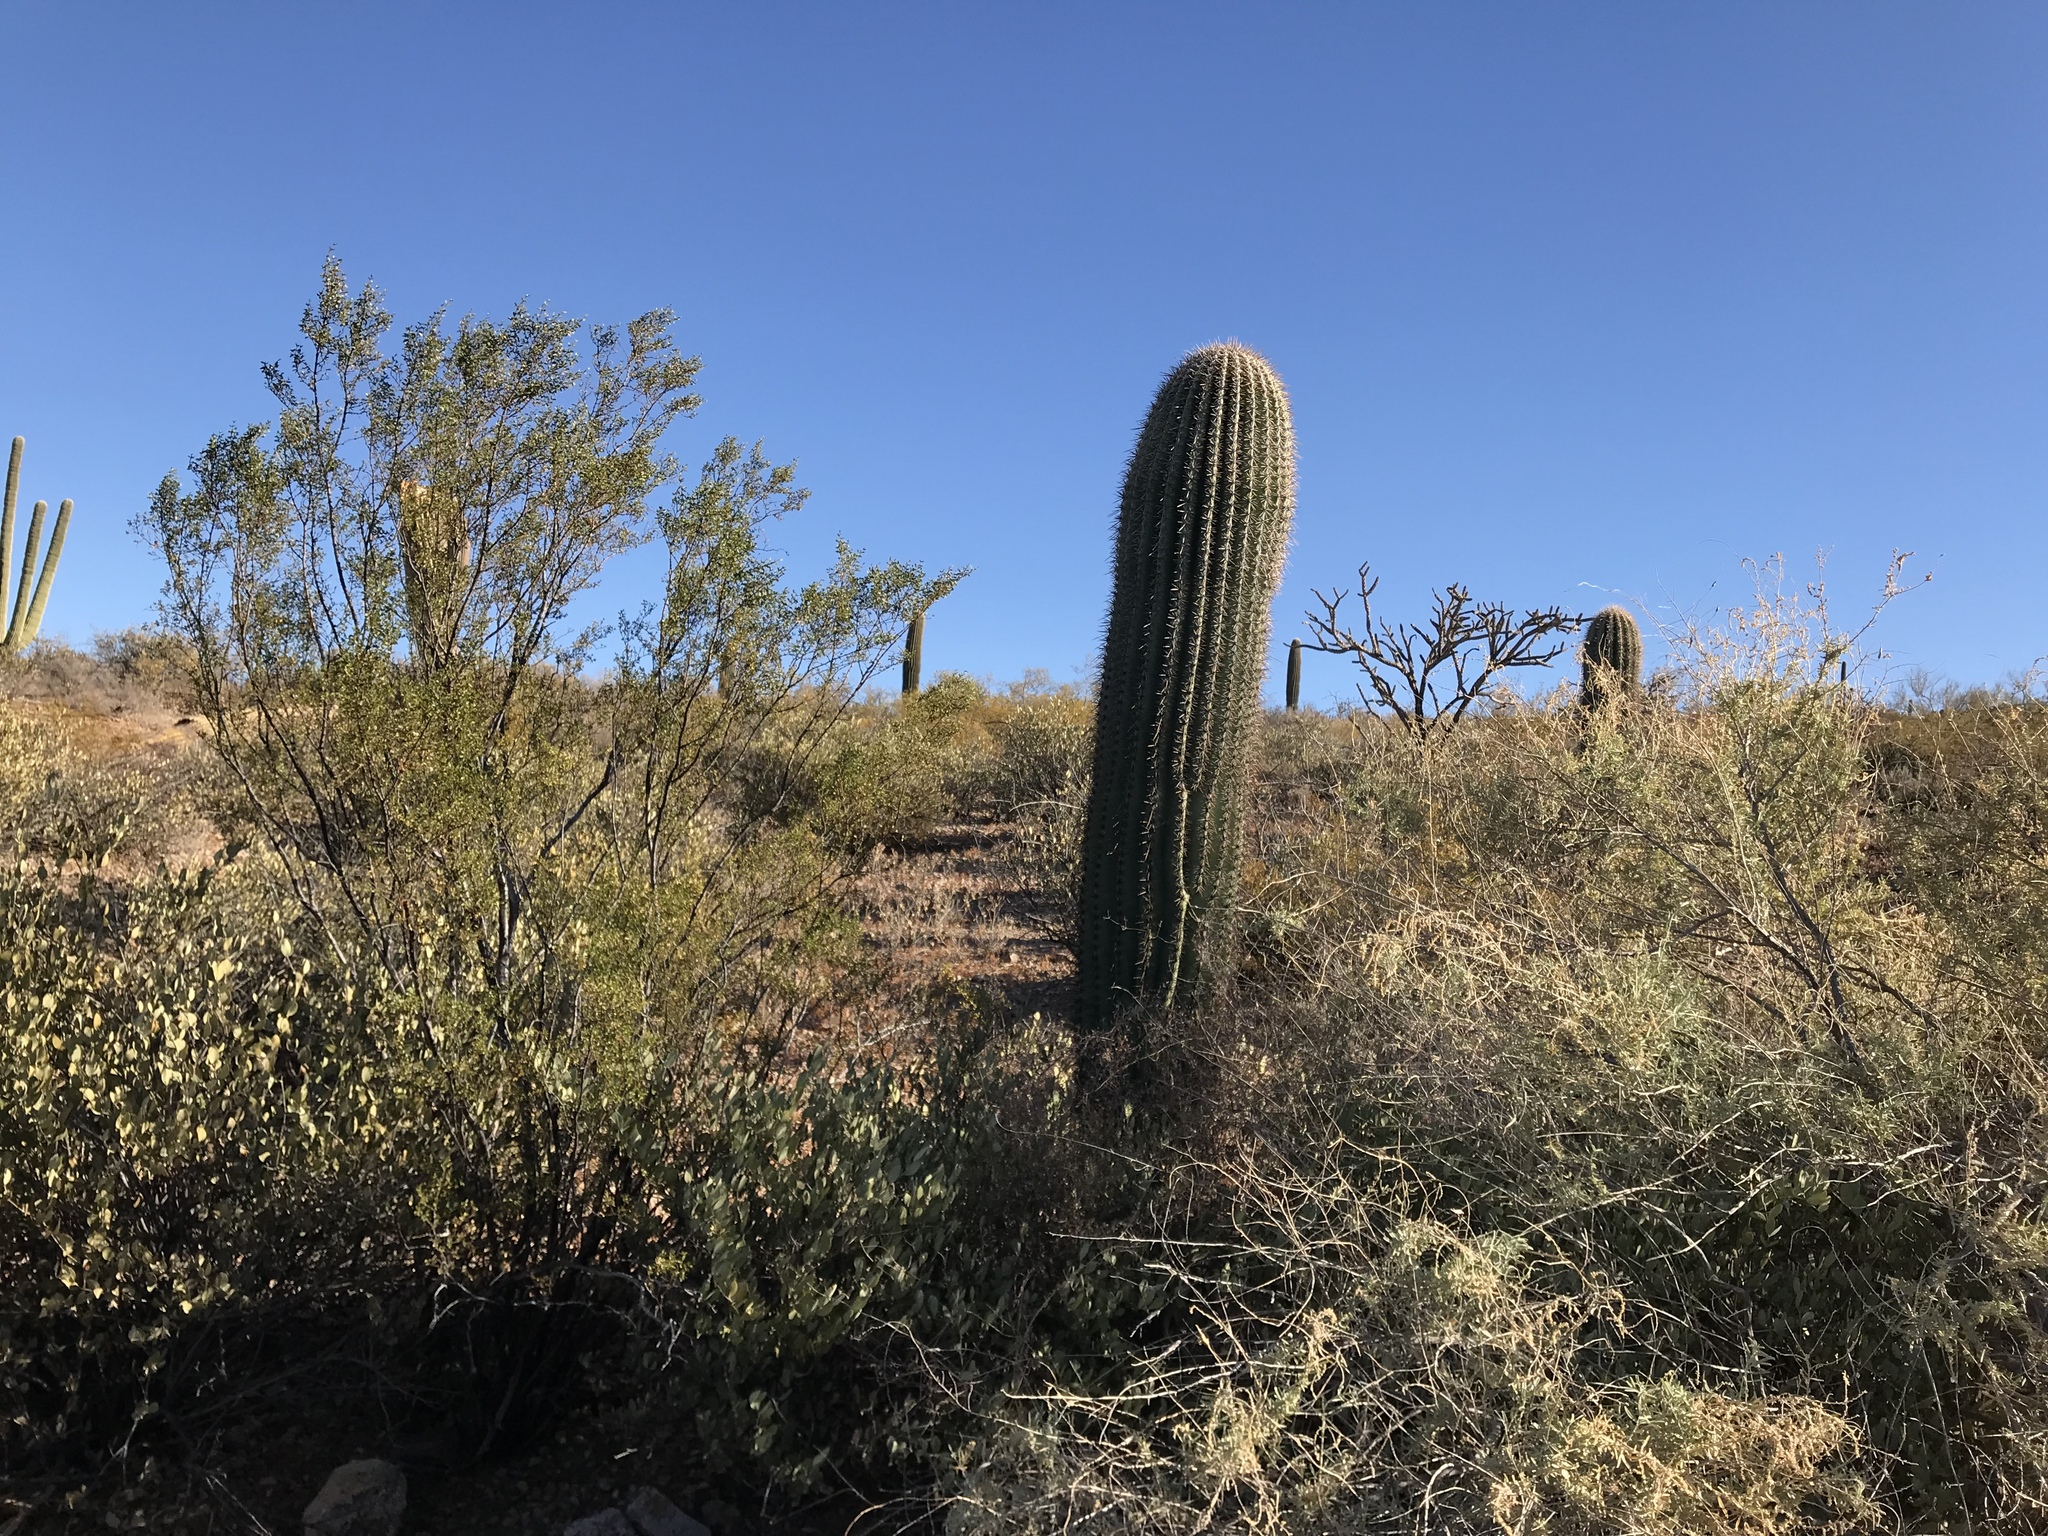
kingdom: Plantae
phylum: Tracheophyta
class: Magnoliopsida
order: Caryophyllales
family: Cactaceae
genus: Carnegiea
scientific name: Carnegiea gigantea
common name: Saguaro
